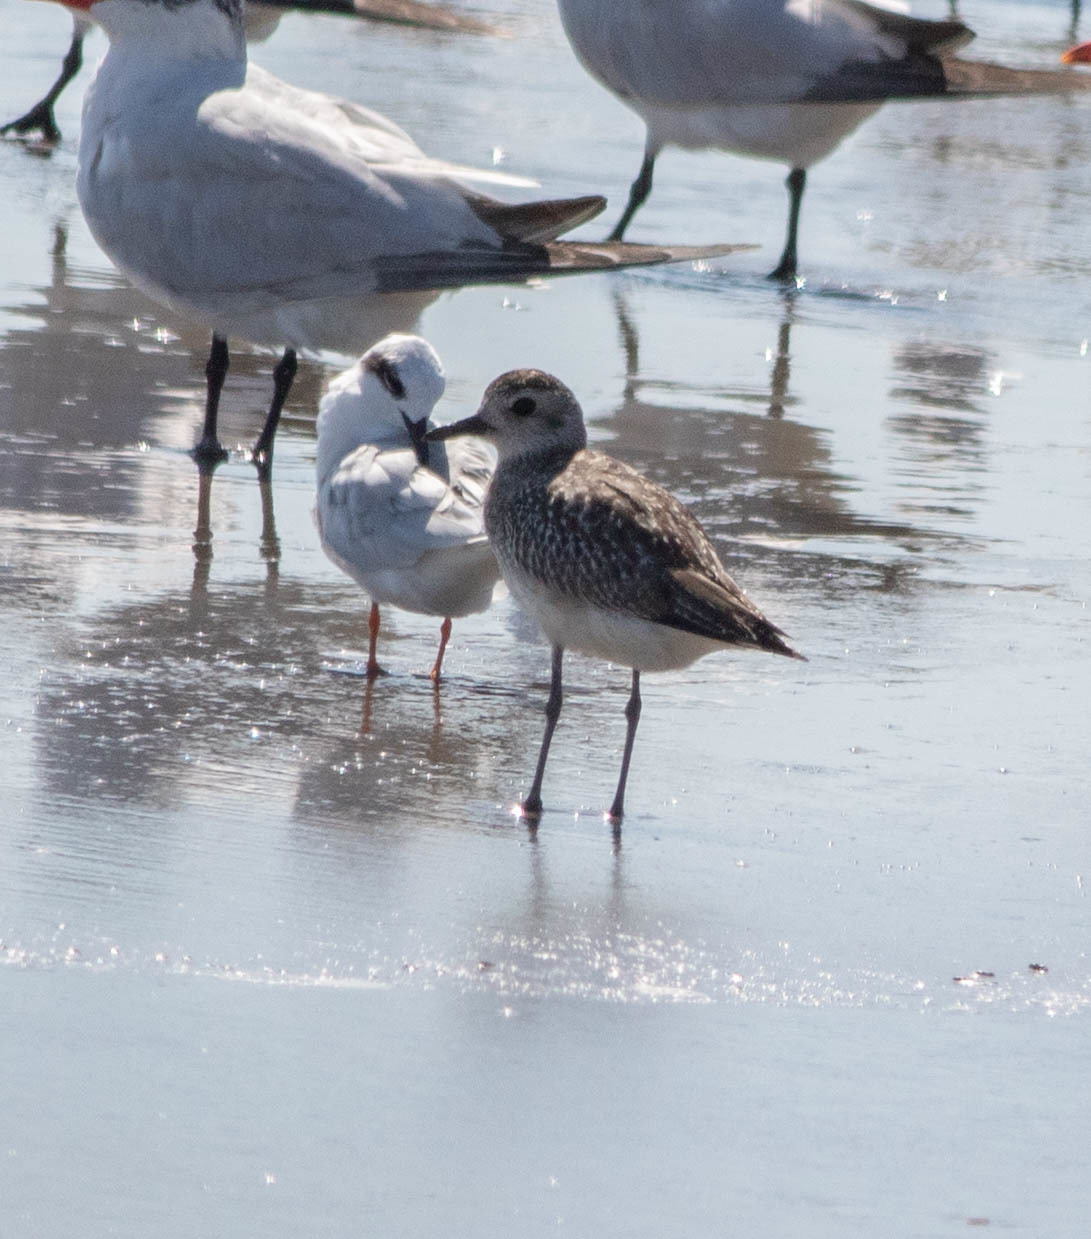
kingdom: Animalia
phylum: Chordata
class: Aves
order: Charadriiformes
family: Charadriidae
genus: Pluvialis
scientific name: Pluvialis squatarola
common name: Grey plover
